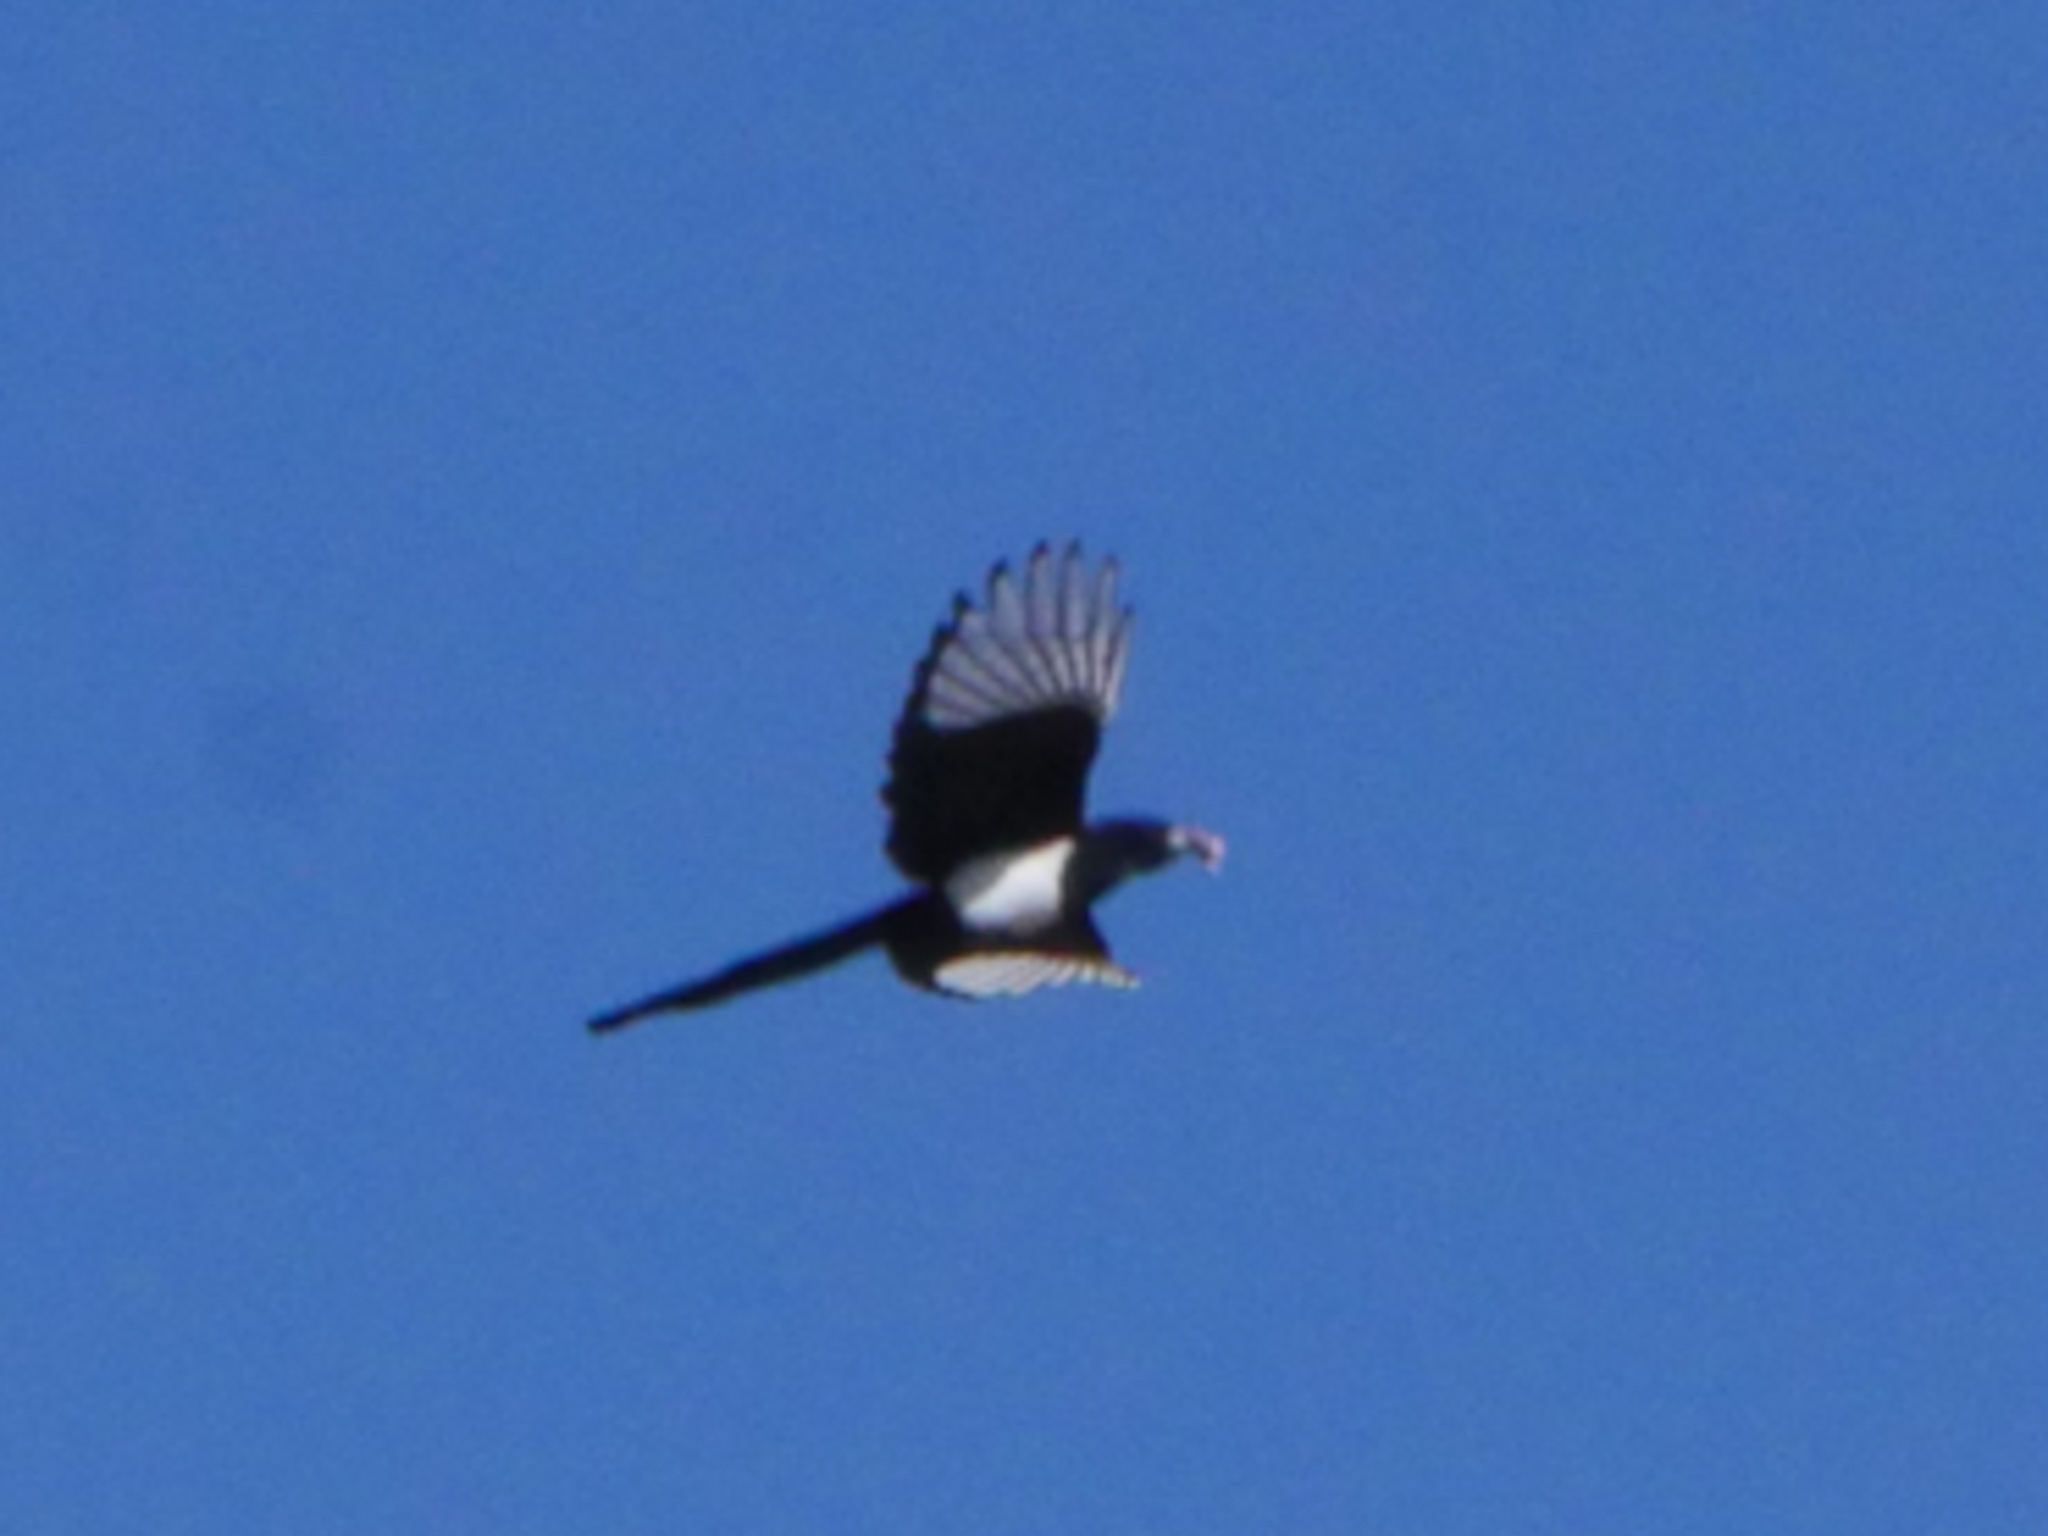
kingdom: Animalia
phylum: Chordata
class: Aves
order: Passeriformes
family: Corvidae
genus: Pica
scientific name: Pica hudsonia
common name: Black-billed magpie
